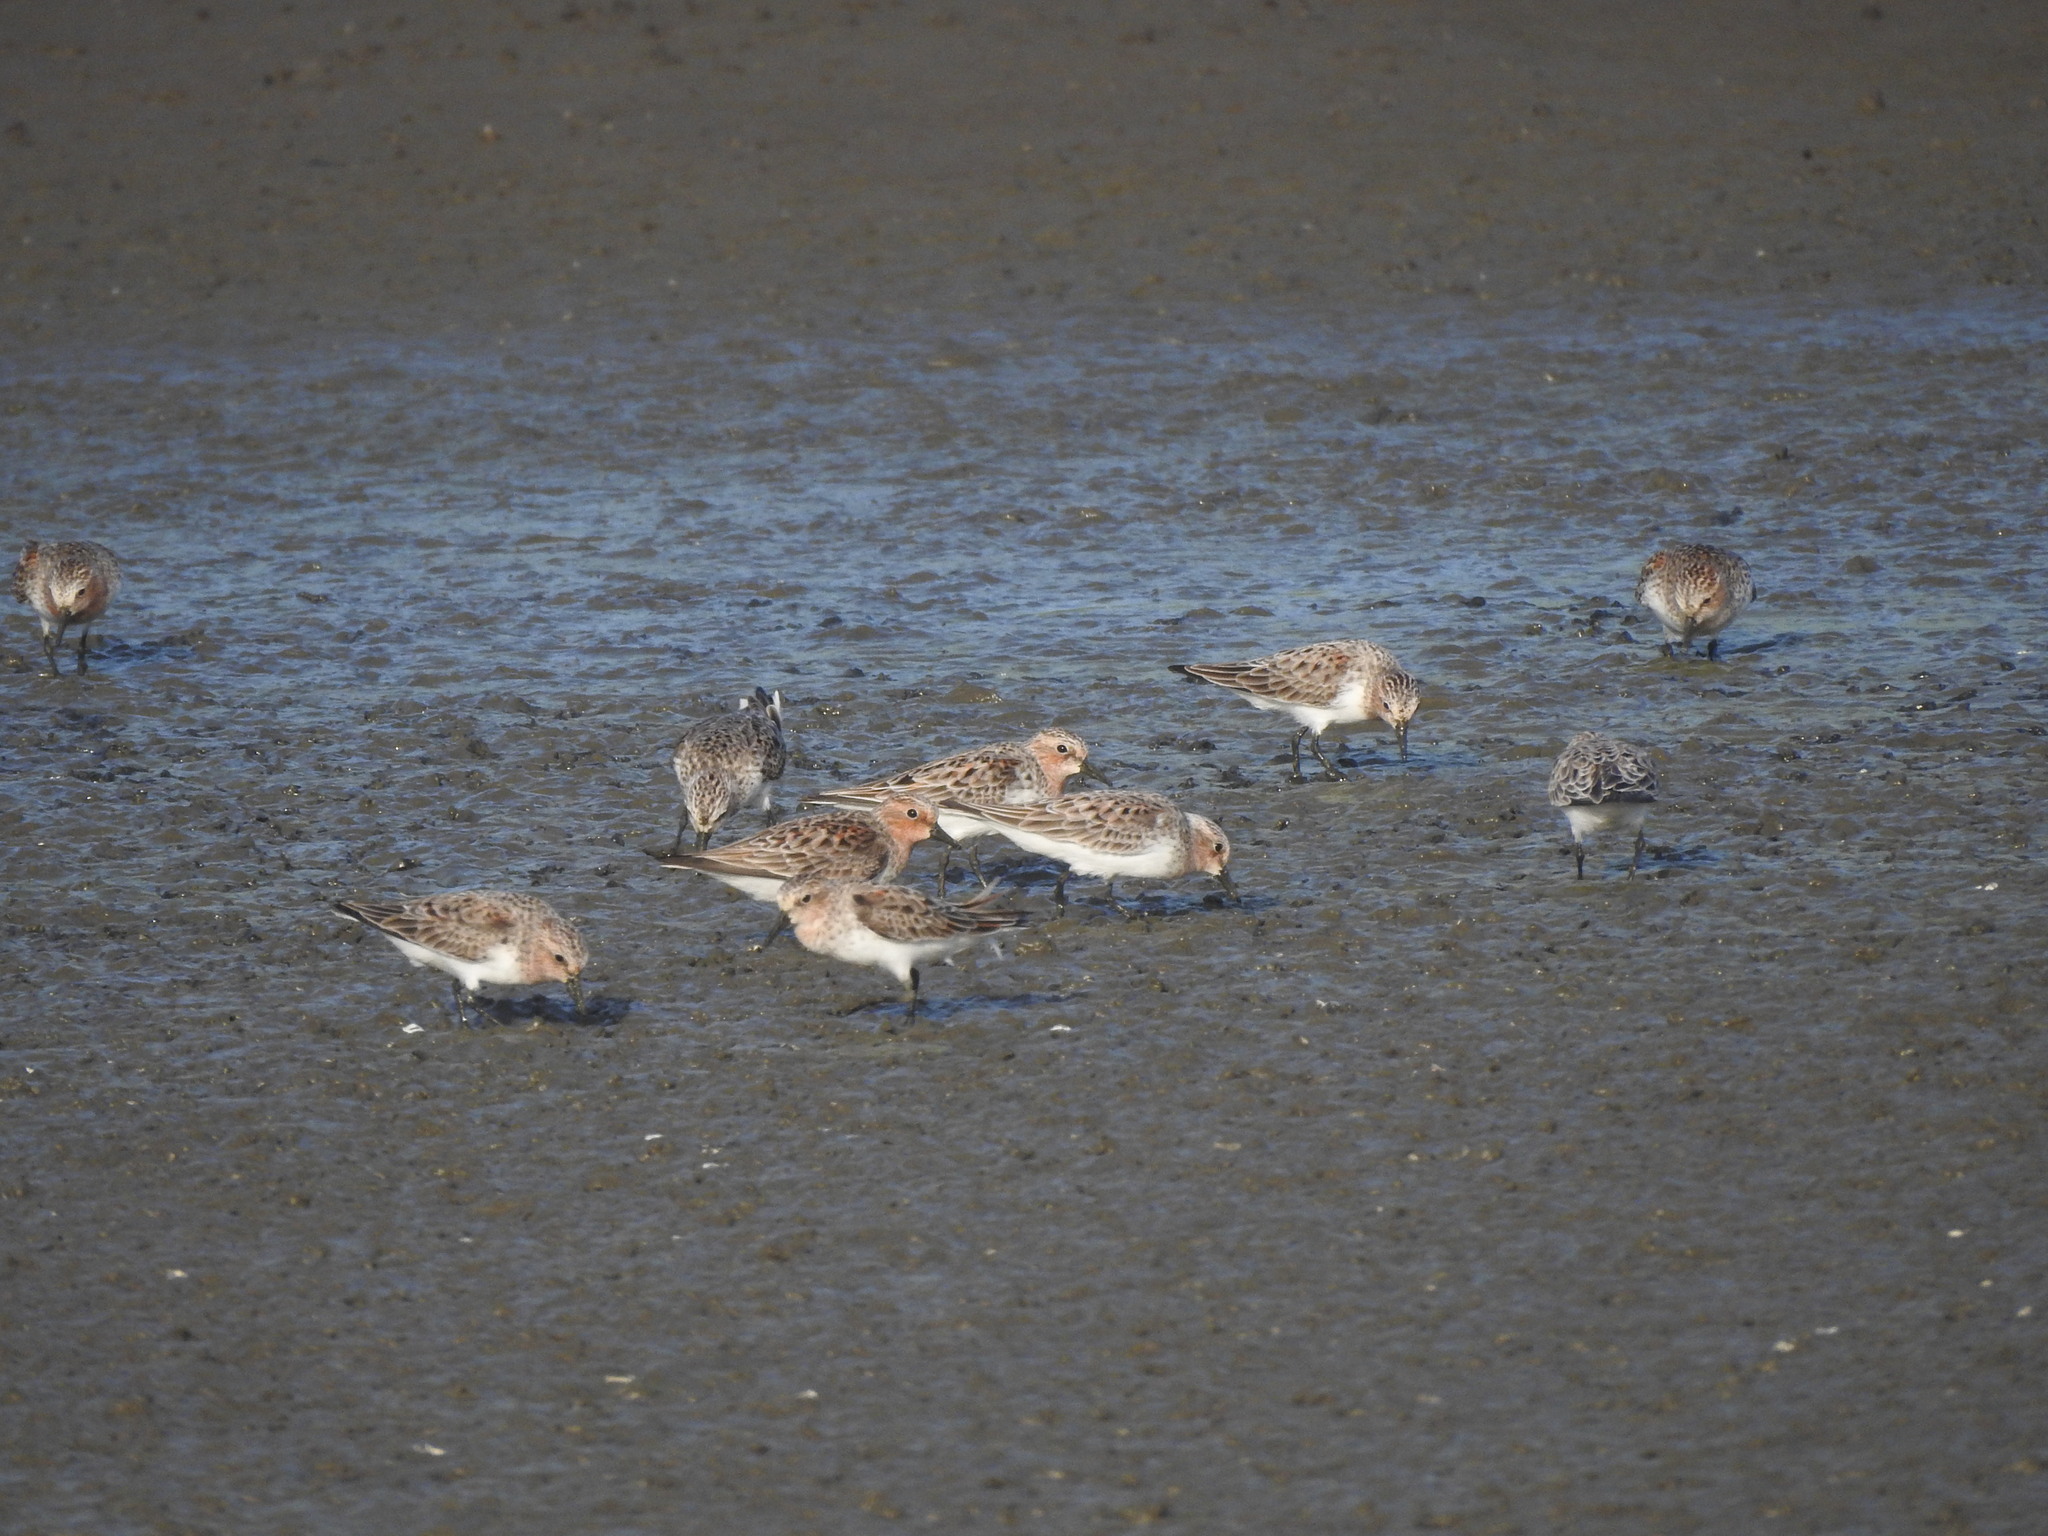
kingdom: Animalia
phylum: Chordata
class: Aves
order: Charadriiformes
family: Scolopacidae
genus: Calidris
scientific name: Calidris ruficollis
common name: Red-necked stint
